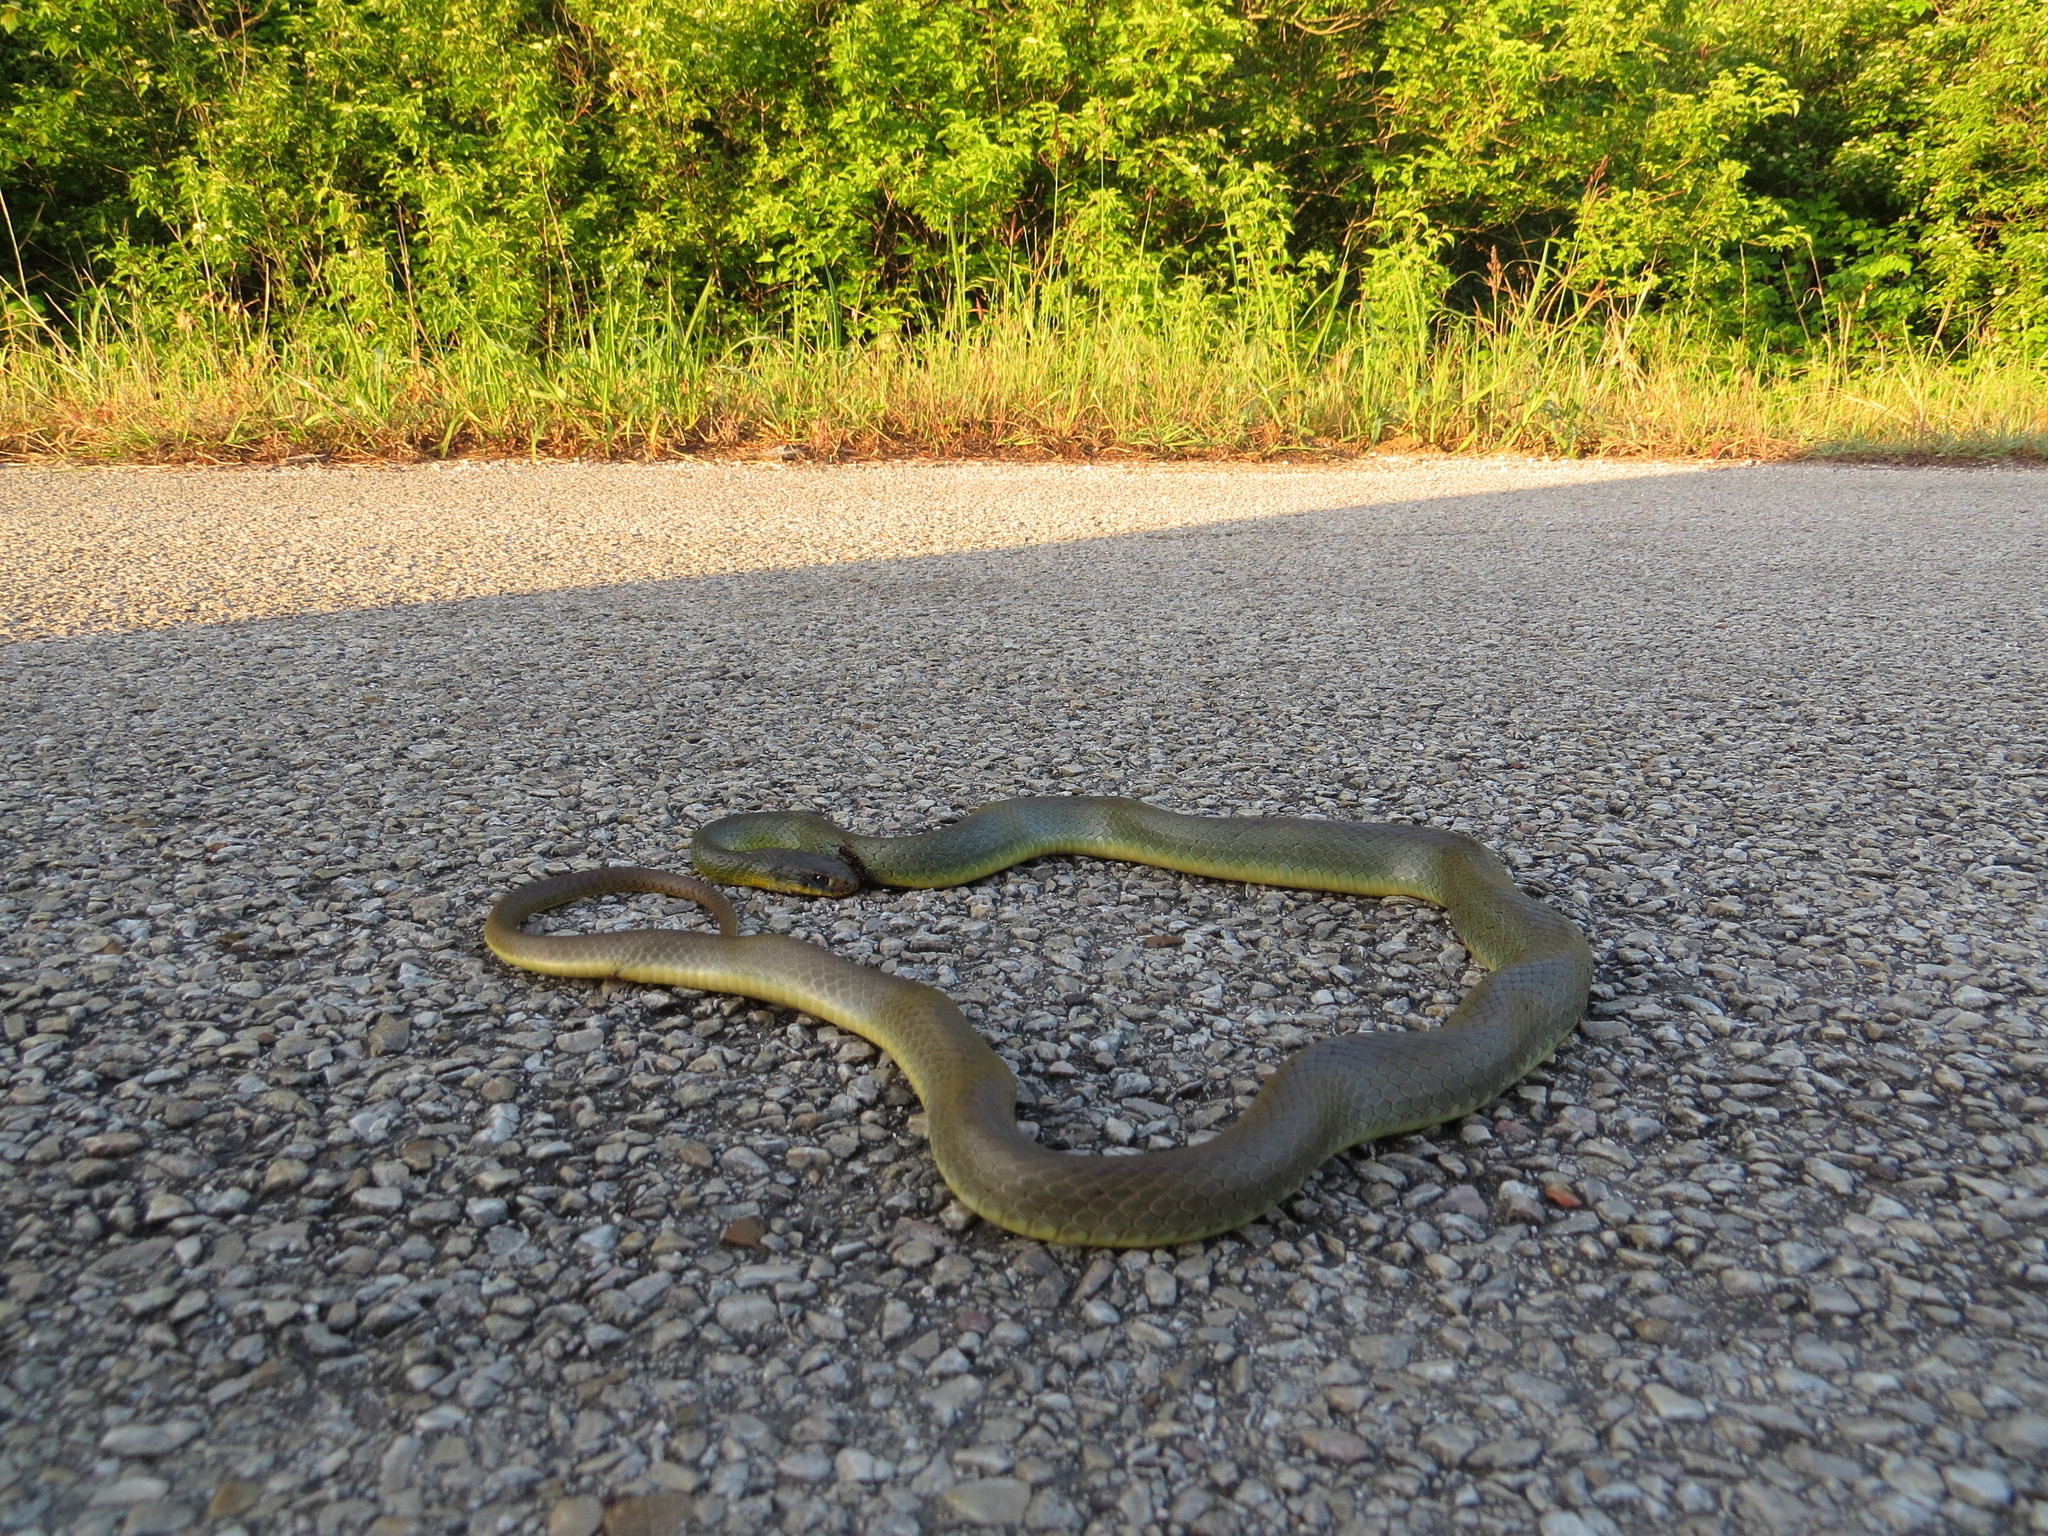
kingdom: Animalia
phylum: Chordata
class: Squamata
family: Colubridae
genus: Coluber
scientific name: Coluber constrictor
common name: Eastern racer
